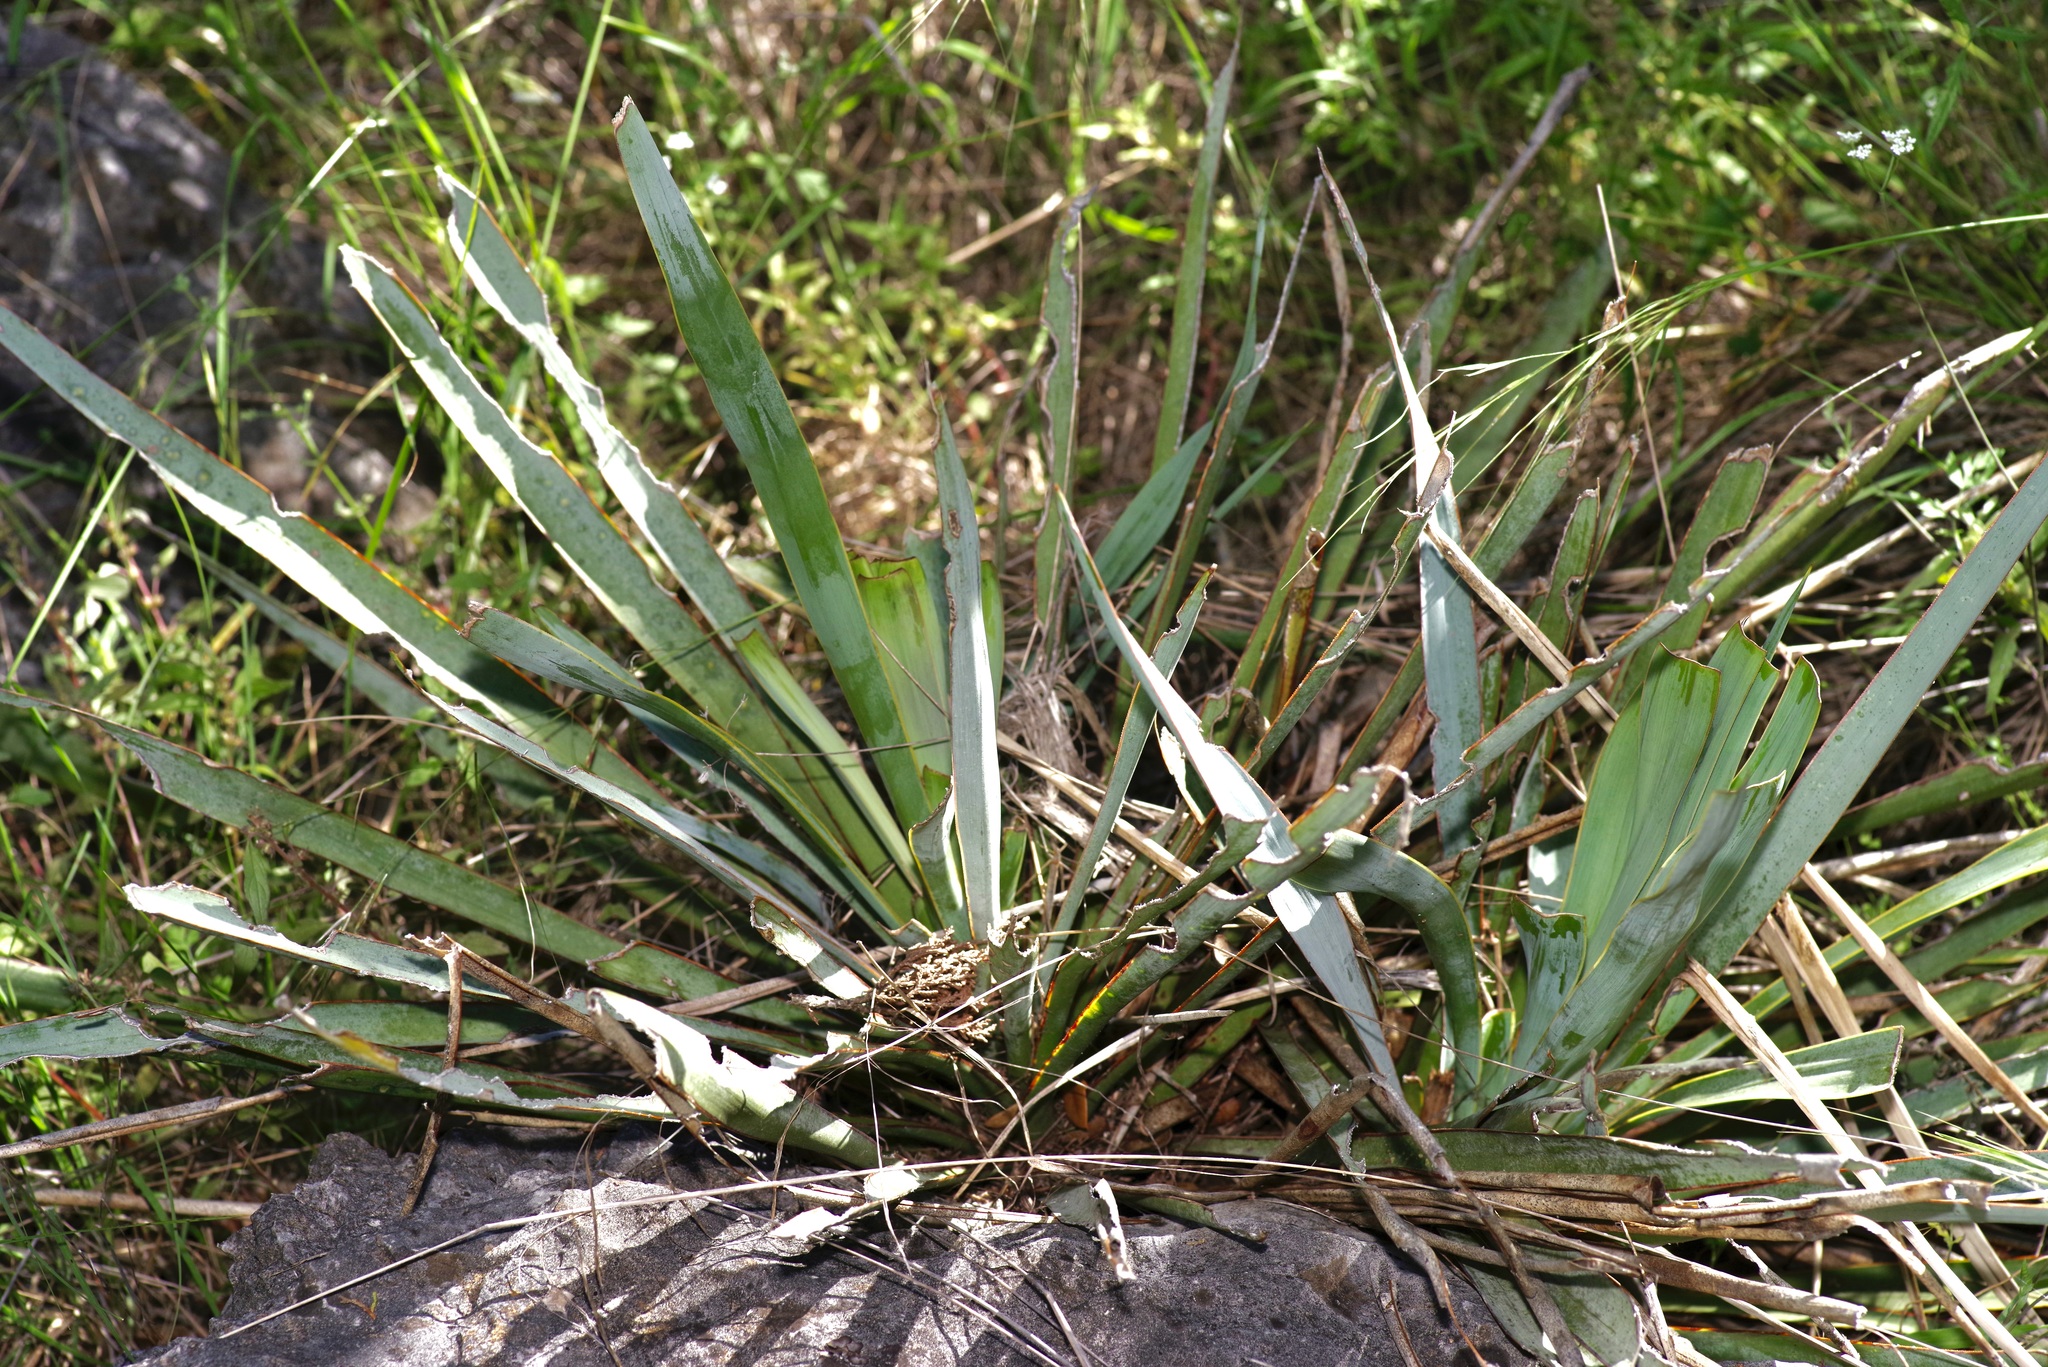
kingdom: Plantae
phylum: Tracheophyta
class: Liliopsida
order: Asparagales
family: Asparagaceae
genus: Yucca
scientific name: Yucca pallida
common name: Pale leaf yucca
